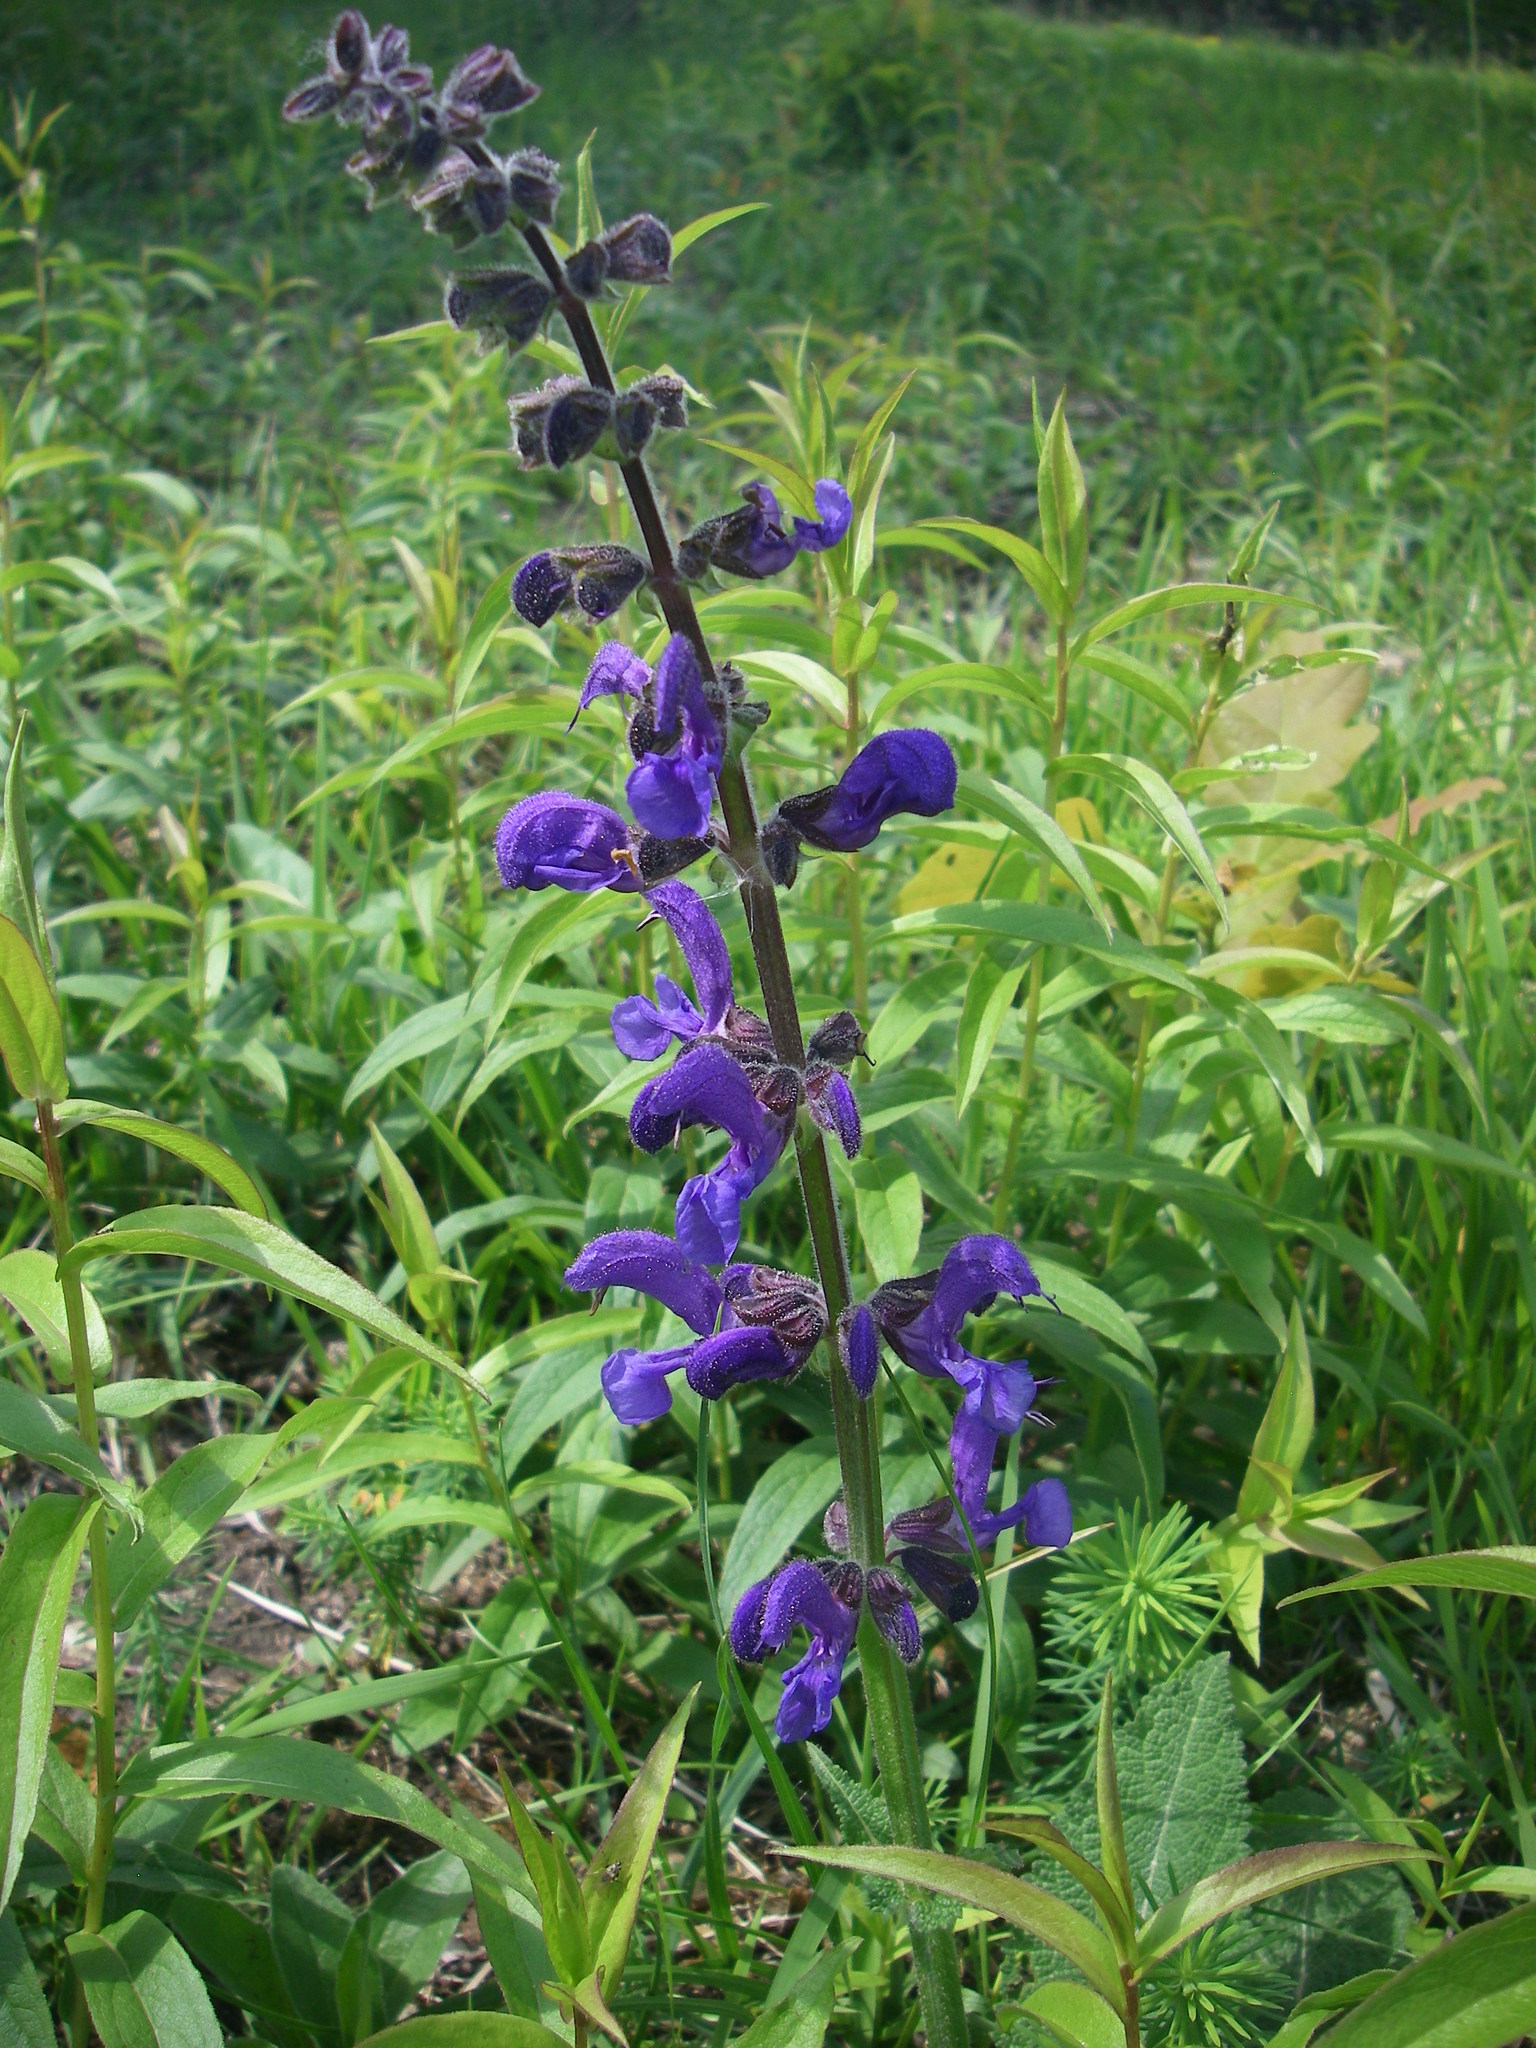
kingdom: Plantae
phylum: Tracheophyta
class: Magnoliopsida
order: Lamiales
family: Lamiaceae
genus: Salvia
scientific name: Salvia pratensis
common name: Meadow sage
